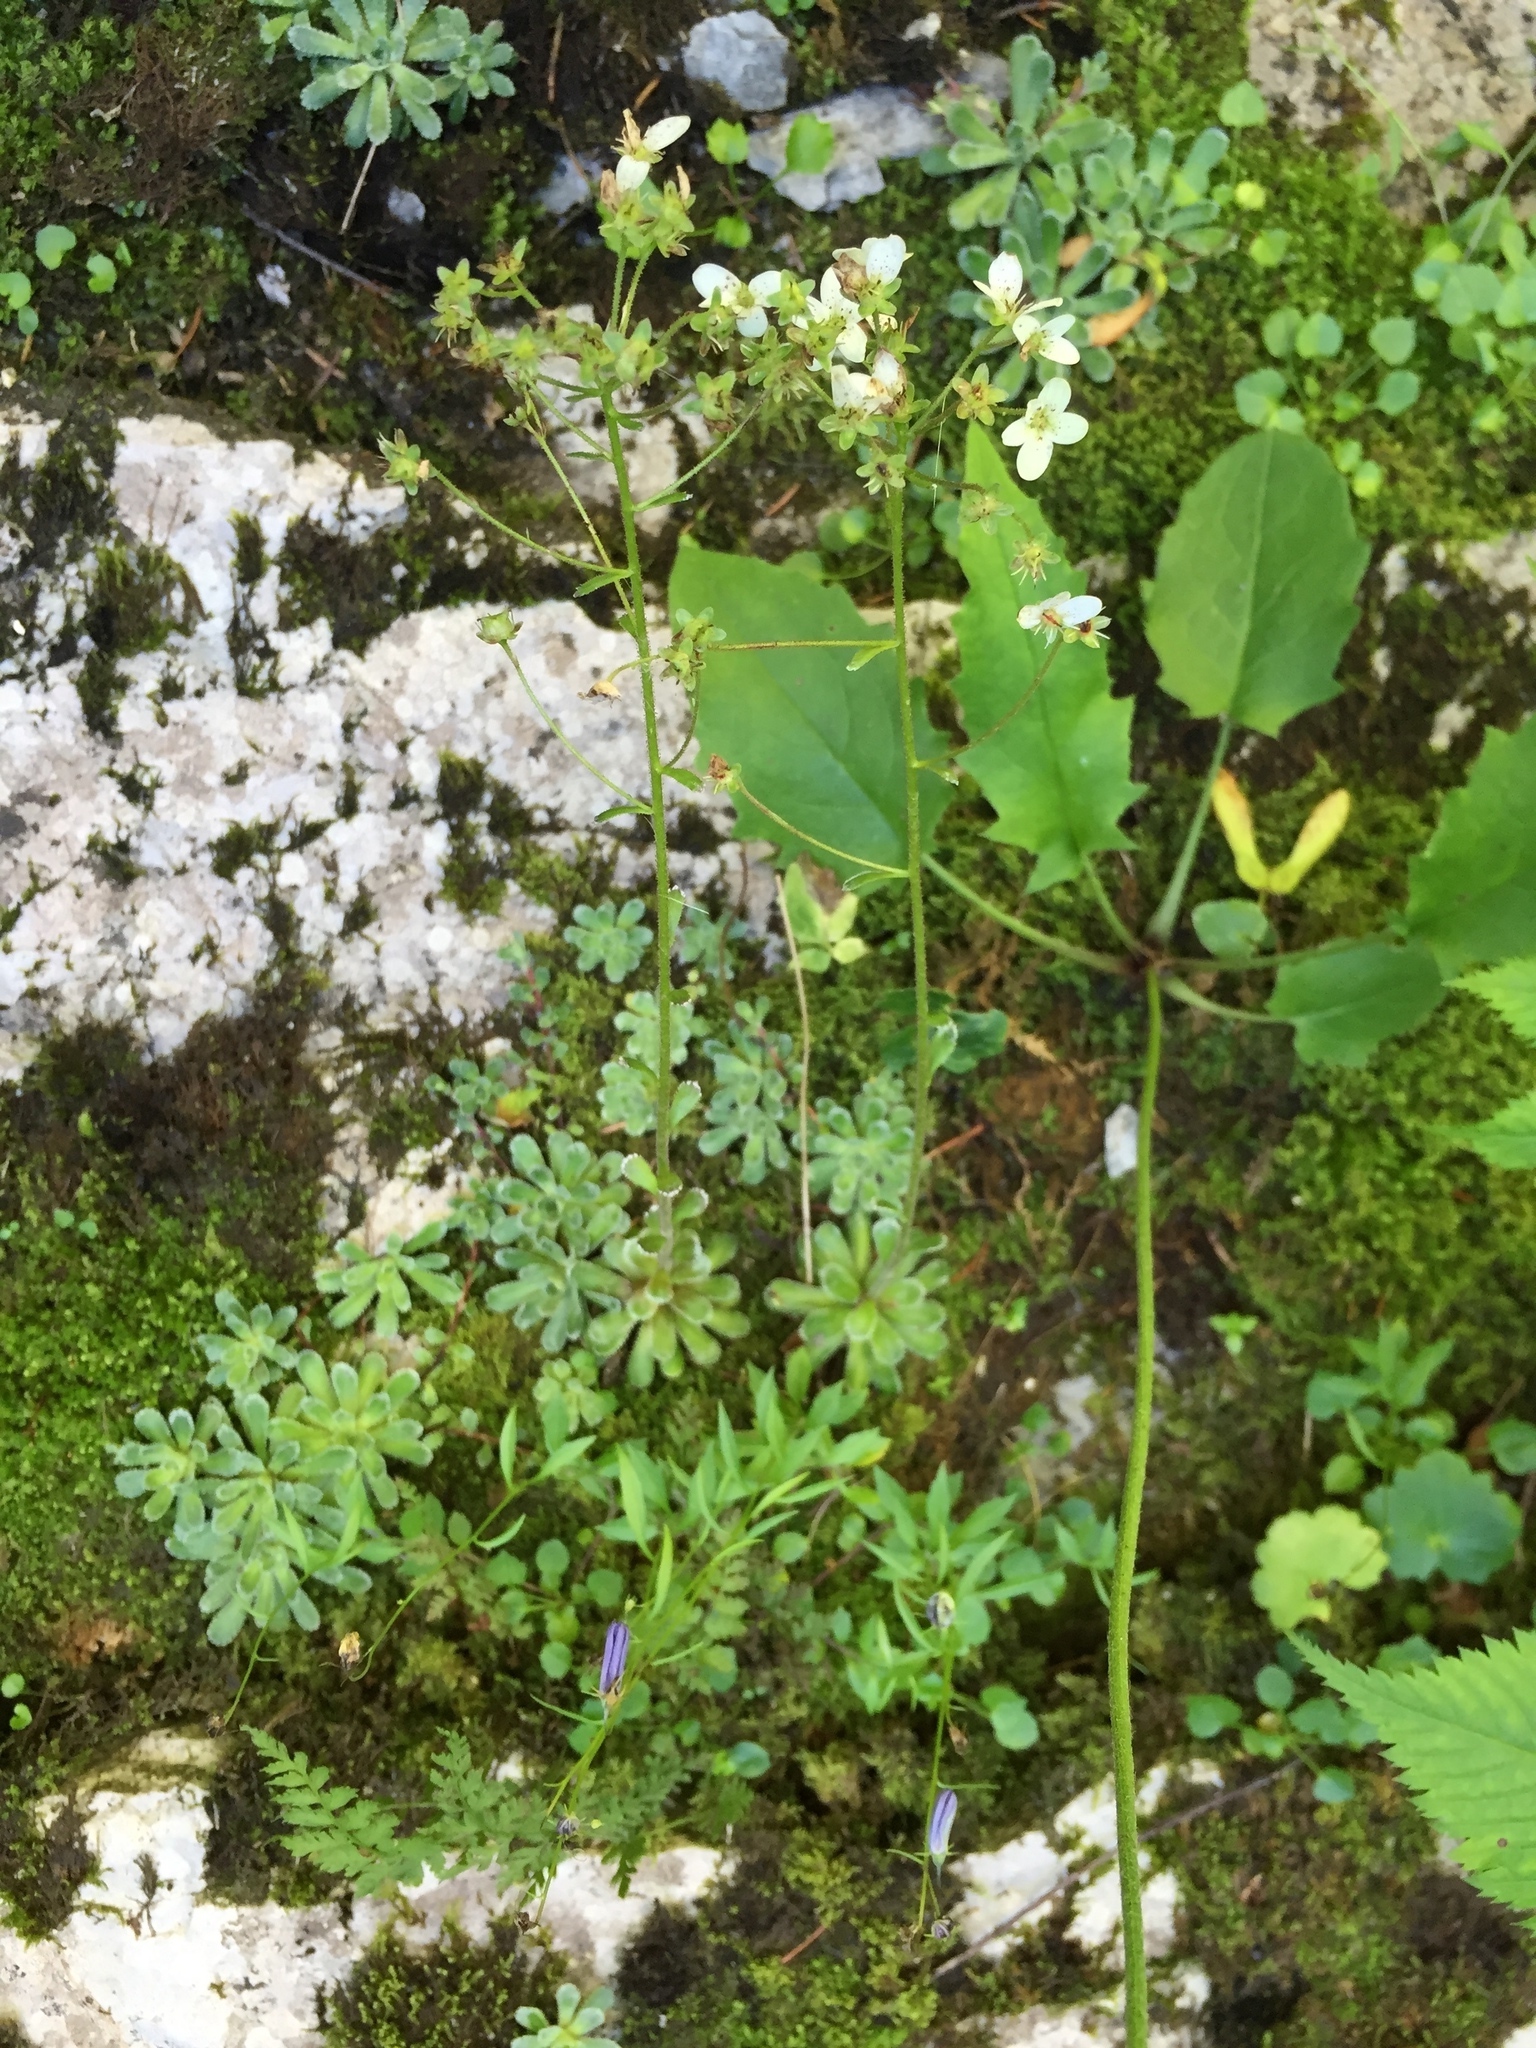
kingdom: Plantae
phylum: Tracheophyta
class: Magnoliopsida
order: Saxifragales
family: Saxifragaceae
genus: Saxifraga
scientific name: Saxifraga paniculata
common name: Livelong saxifrage
